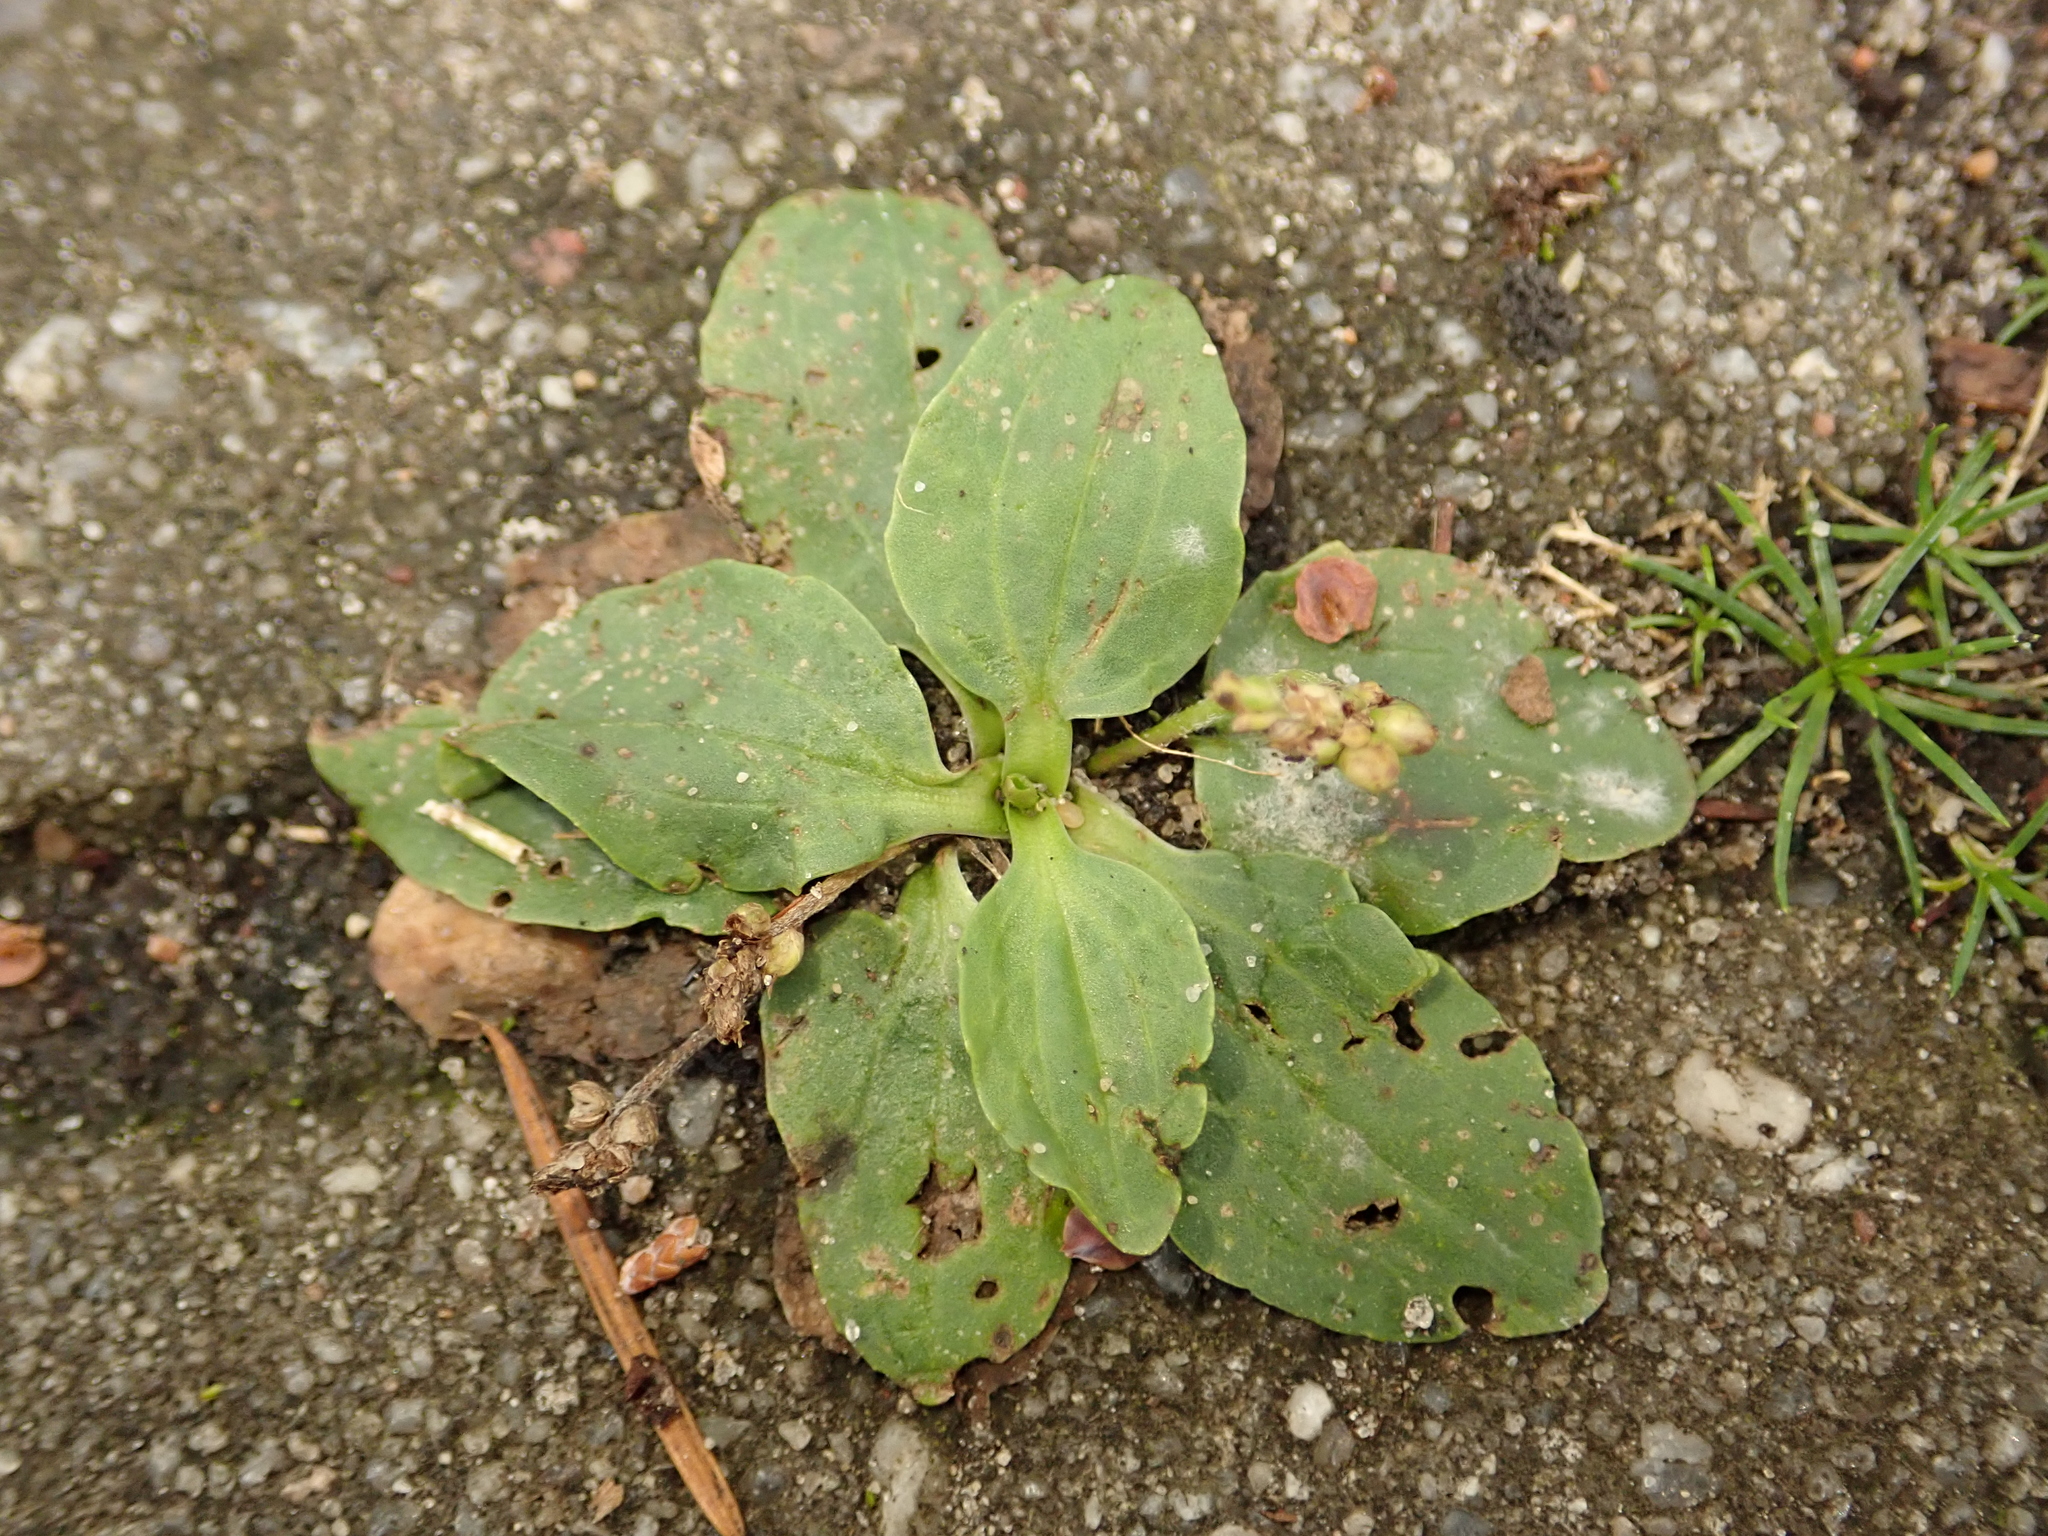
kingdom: Plantae
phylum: Tracheophyta
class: Magnoliopsida
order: Lamiales
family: Plantaginaceae
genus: Plantago
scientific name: Plantago major
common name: Common plantain
